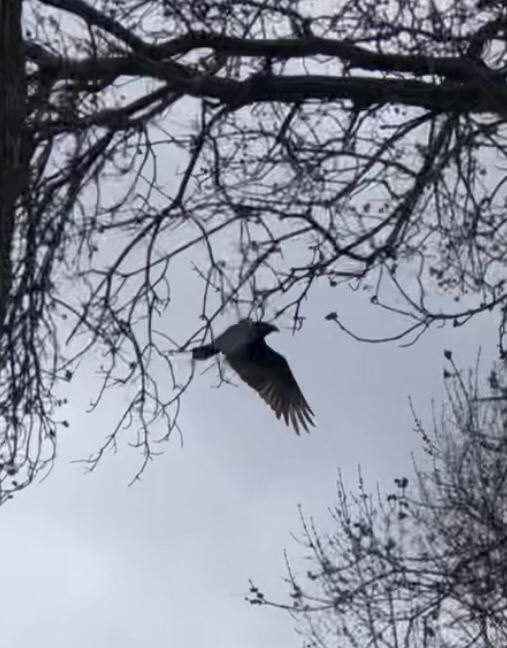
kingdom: Animalia
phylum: Chordata
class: Aves
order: Accipitriformes
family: Cathartidae
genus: Cathartes
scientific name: Cathartes aura
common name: Turkey vulture
